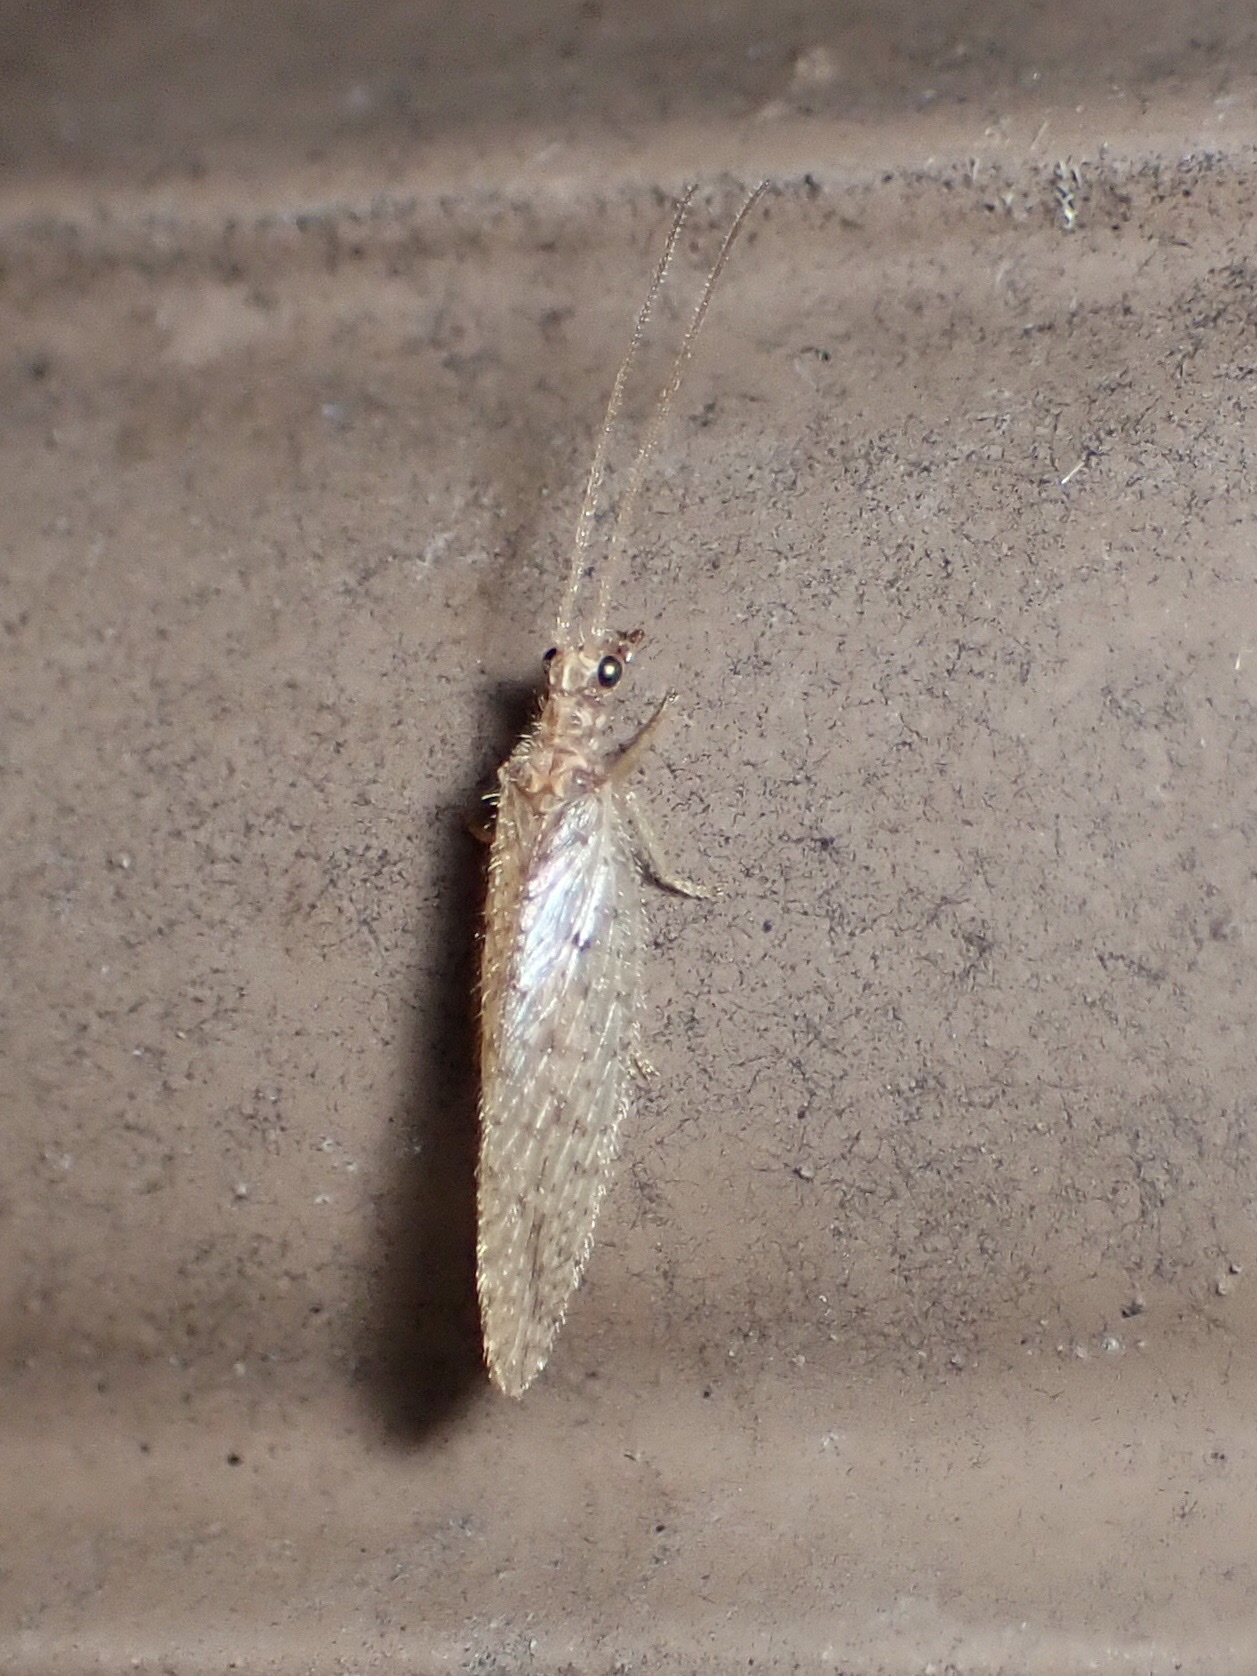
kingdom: Animalia
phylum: Arthropoda
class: Insecta
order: Neuroptera
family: Hemerobiidae
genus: Micromus
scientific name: Micromus subanticus
